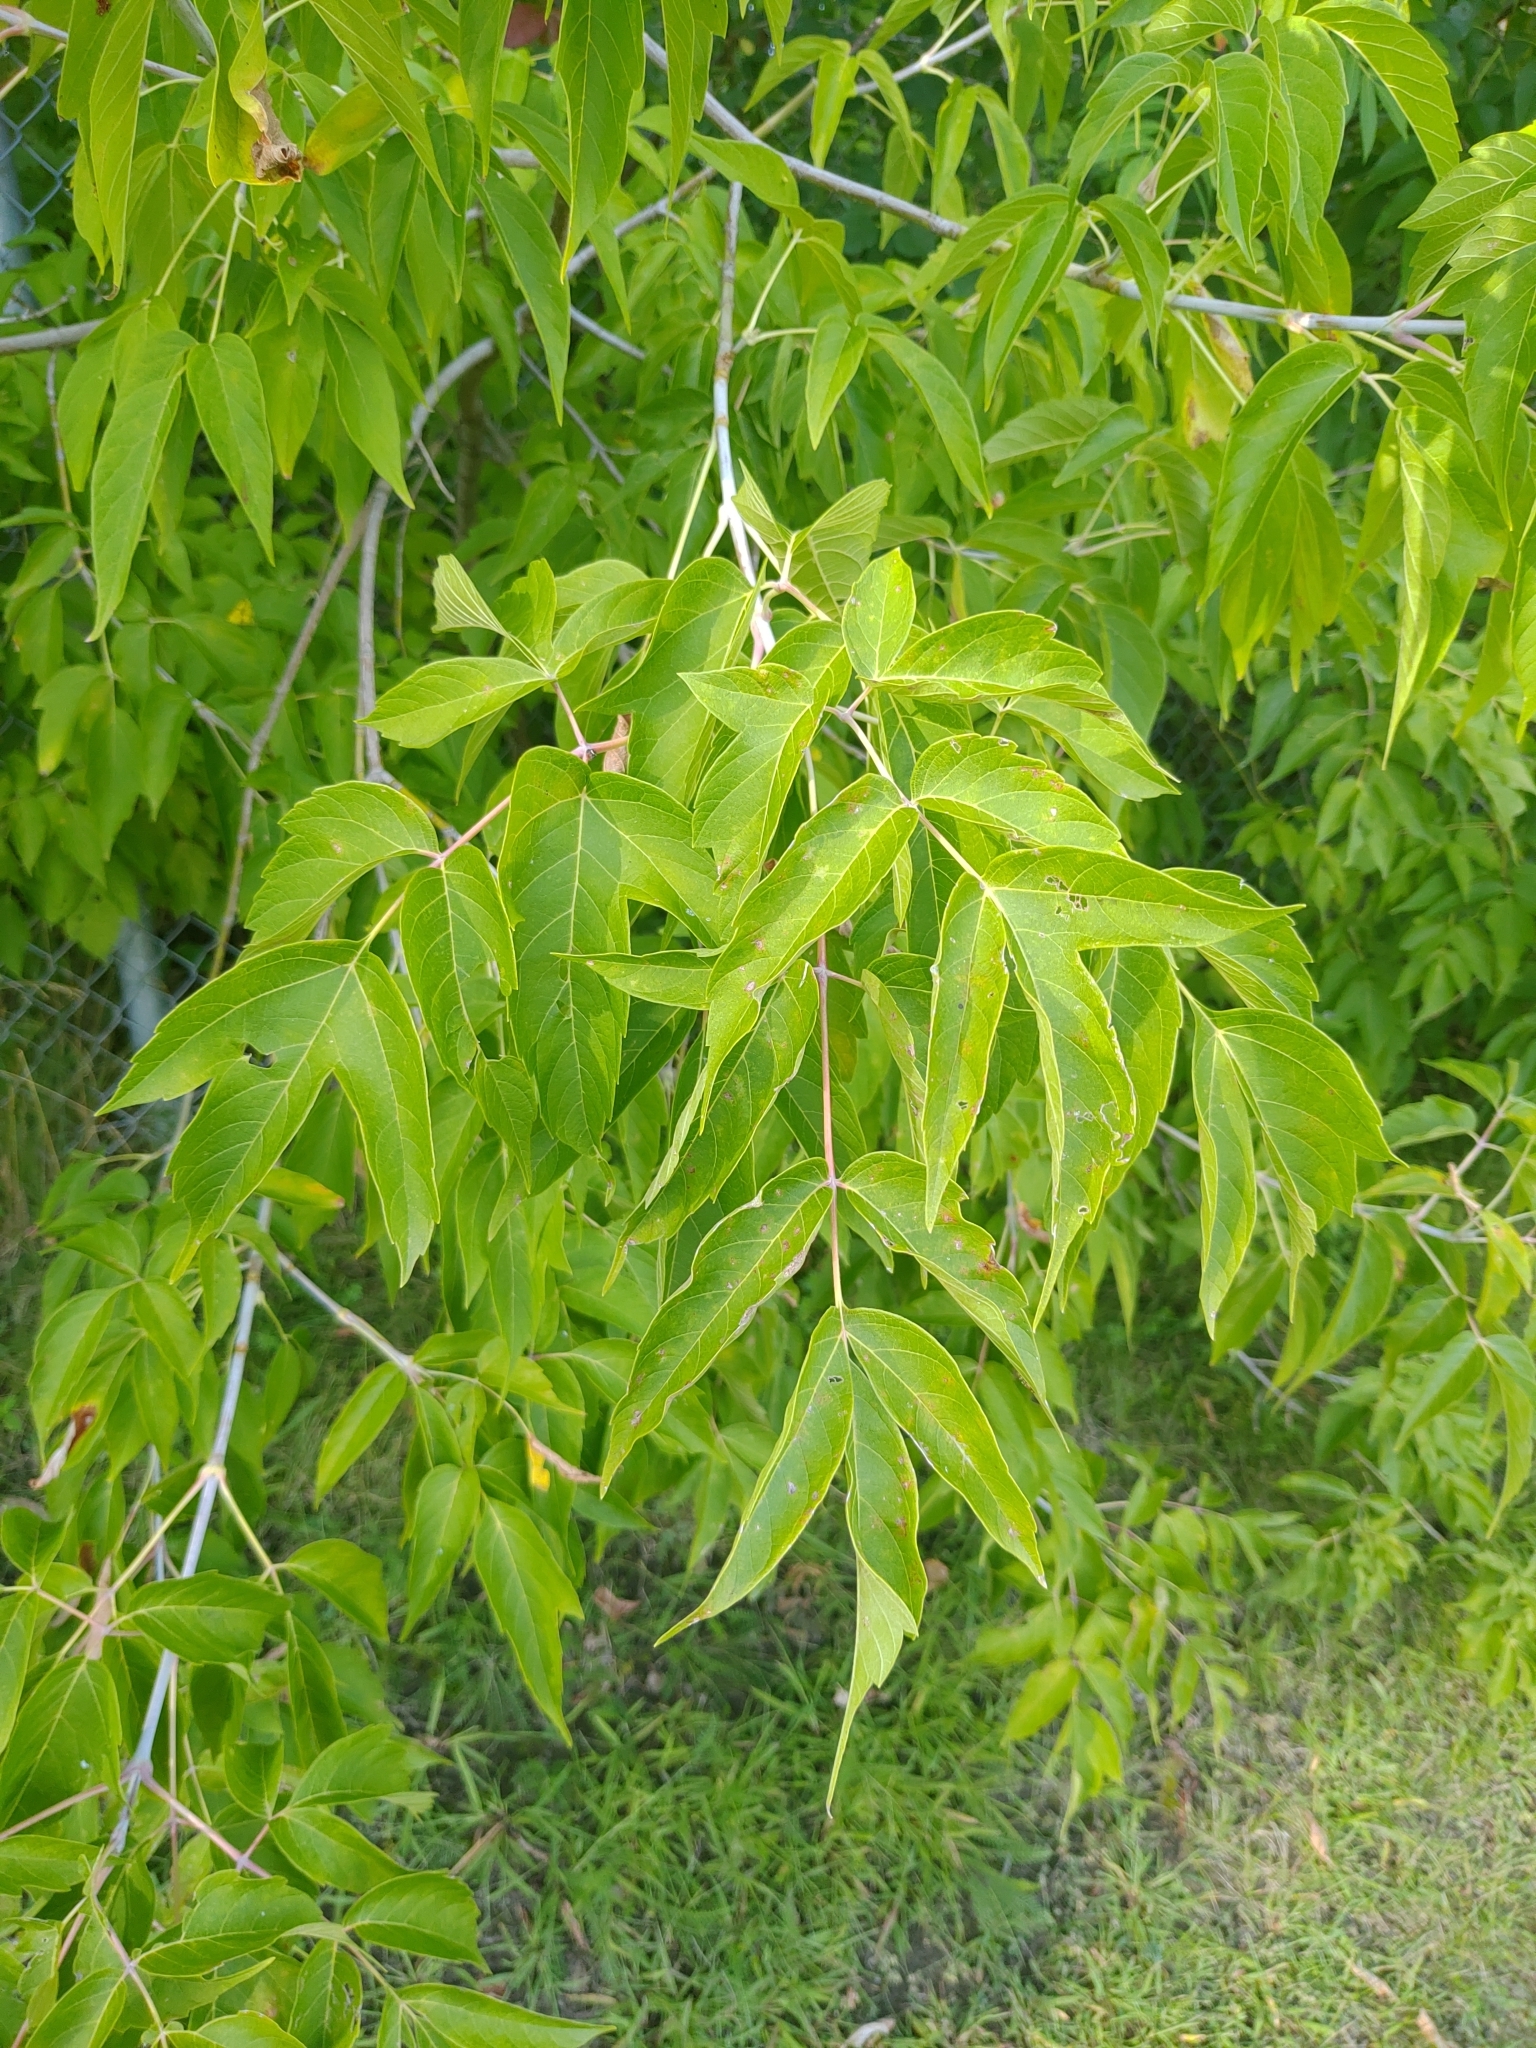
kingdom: Plantae
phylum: Tracheophyta
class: Magnoliopsida
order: Sapindales
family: Sapindaceae
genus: Acer
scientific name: Acer negundo
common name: Ashleaf maple
